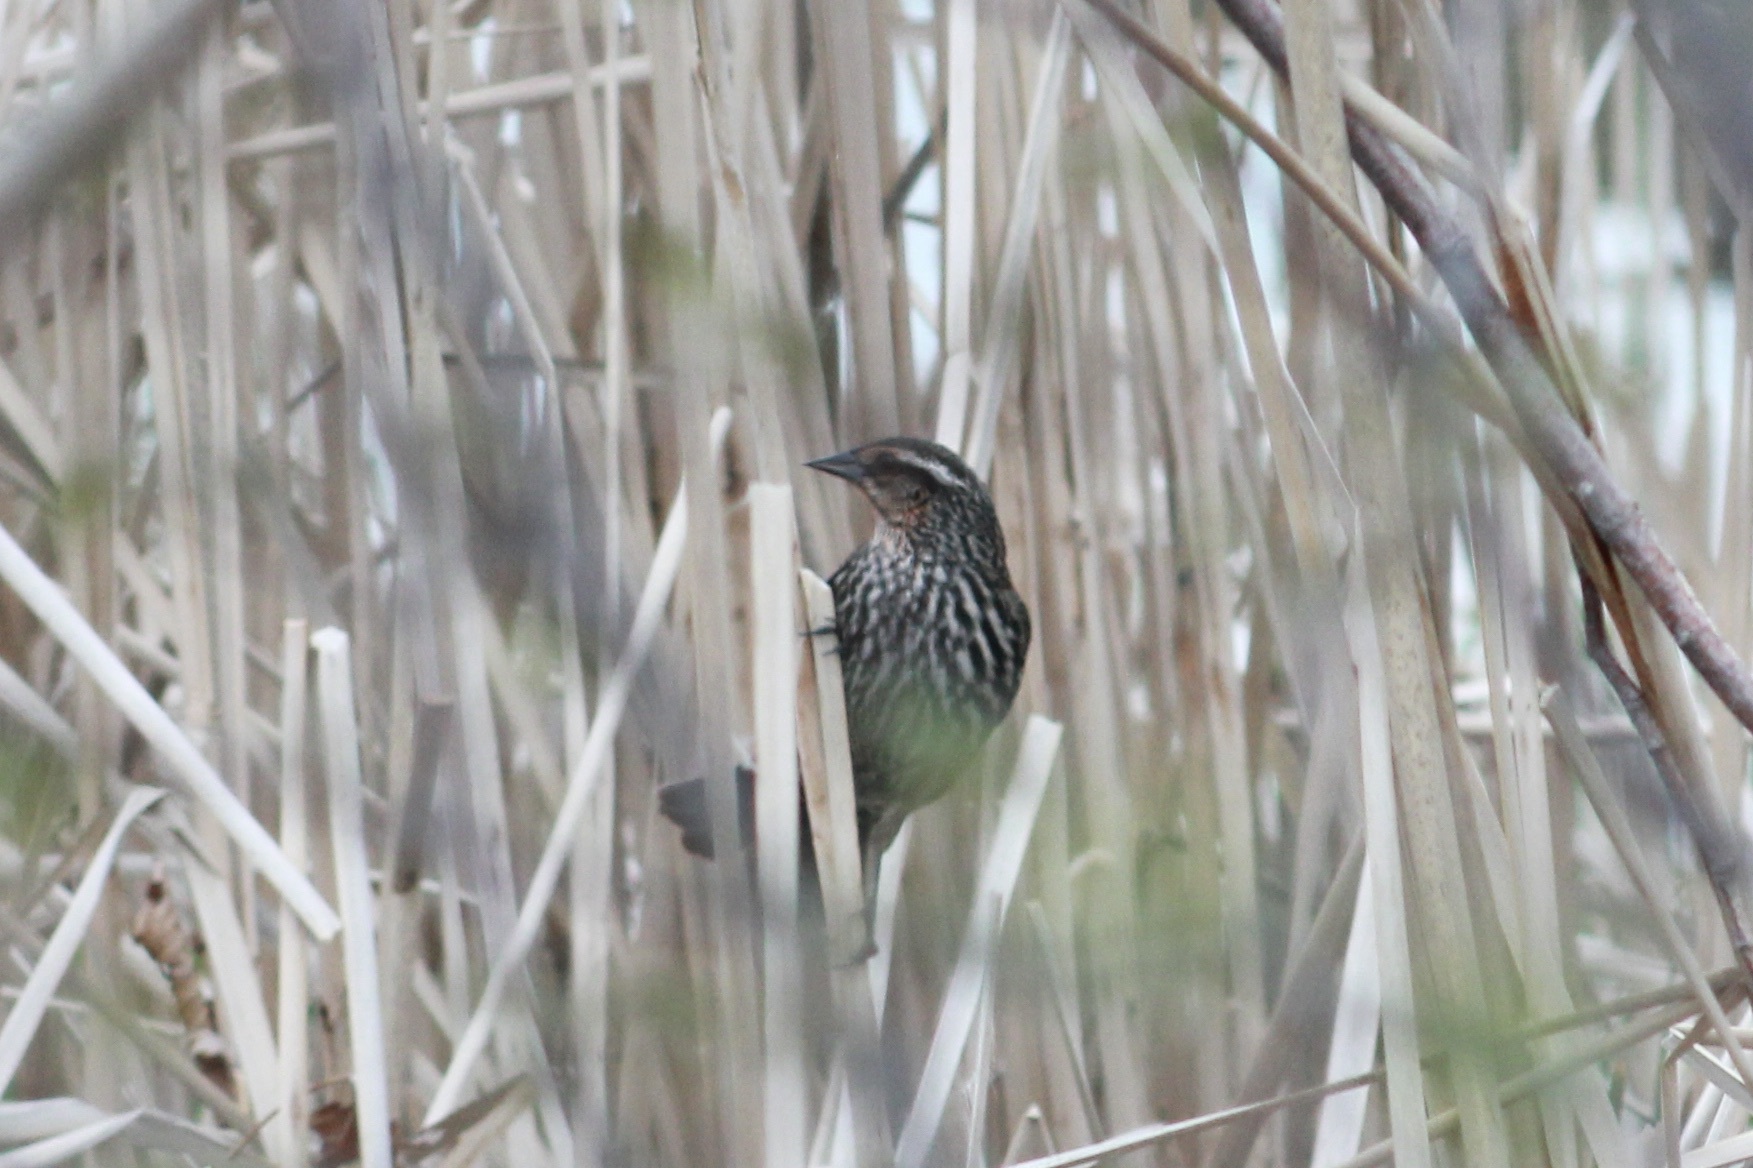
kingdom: Animalia
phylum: Chordata
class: Aves
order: Passeriformes
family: Icteridae
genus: Agelaius
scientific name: Agelaius phoeniceus
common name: Red-winged blackbird
